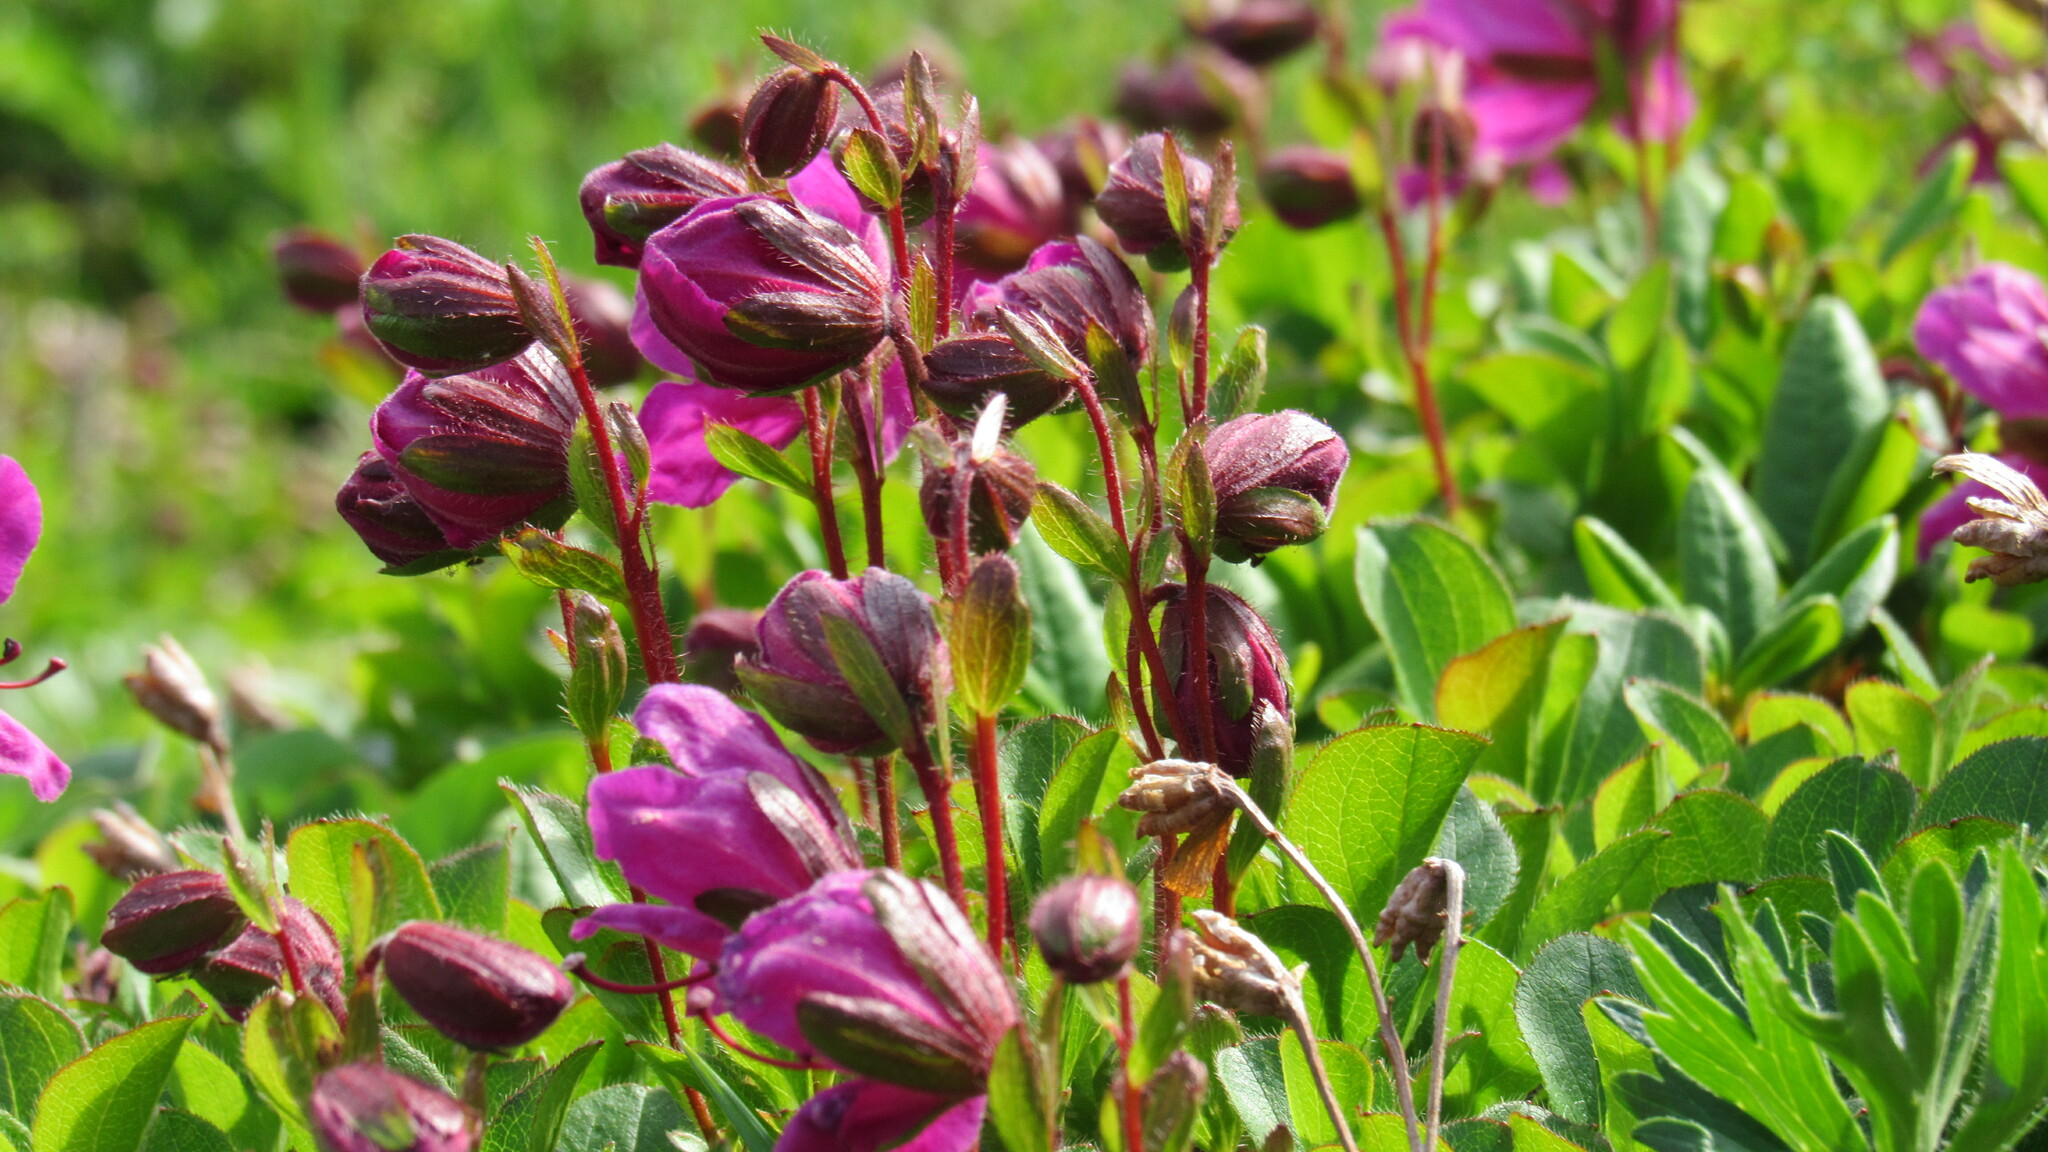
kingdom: Plantae
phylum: Tracheophyta
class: Magnoliopsida
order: Ericales
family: Ericaceae
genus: Rhododendron
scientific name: Rhododendron camtschaticum
